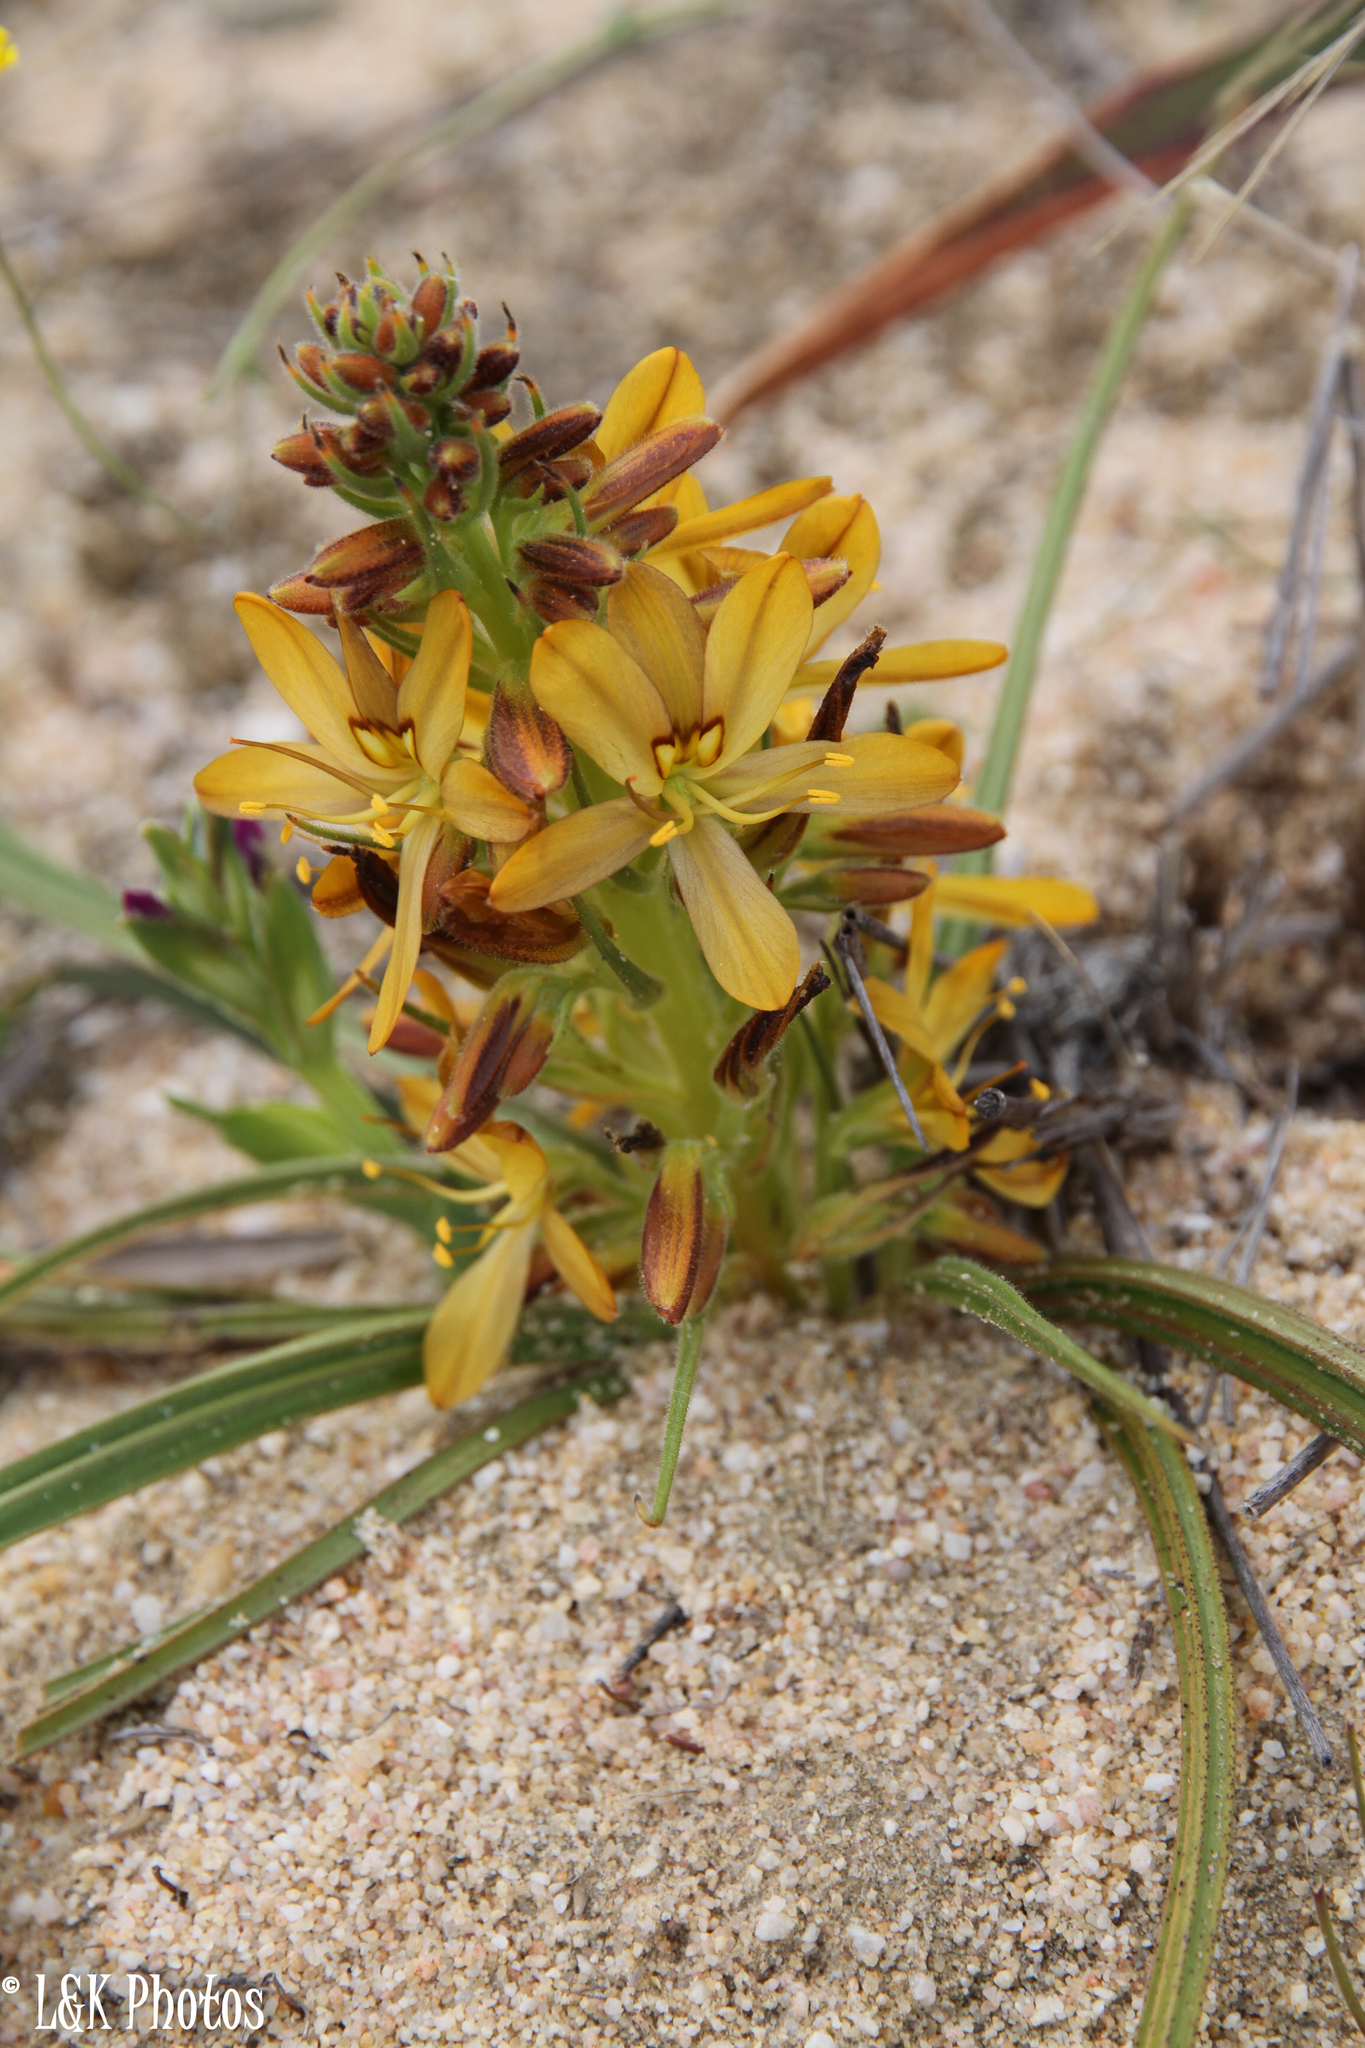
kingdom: Plantae
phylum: Tracheophyta
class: Liliopsida
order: Commelinales
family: Haemodoraceae
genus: Wachendorfia
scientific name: Wachendorfia multiflora
